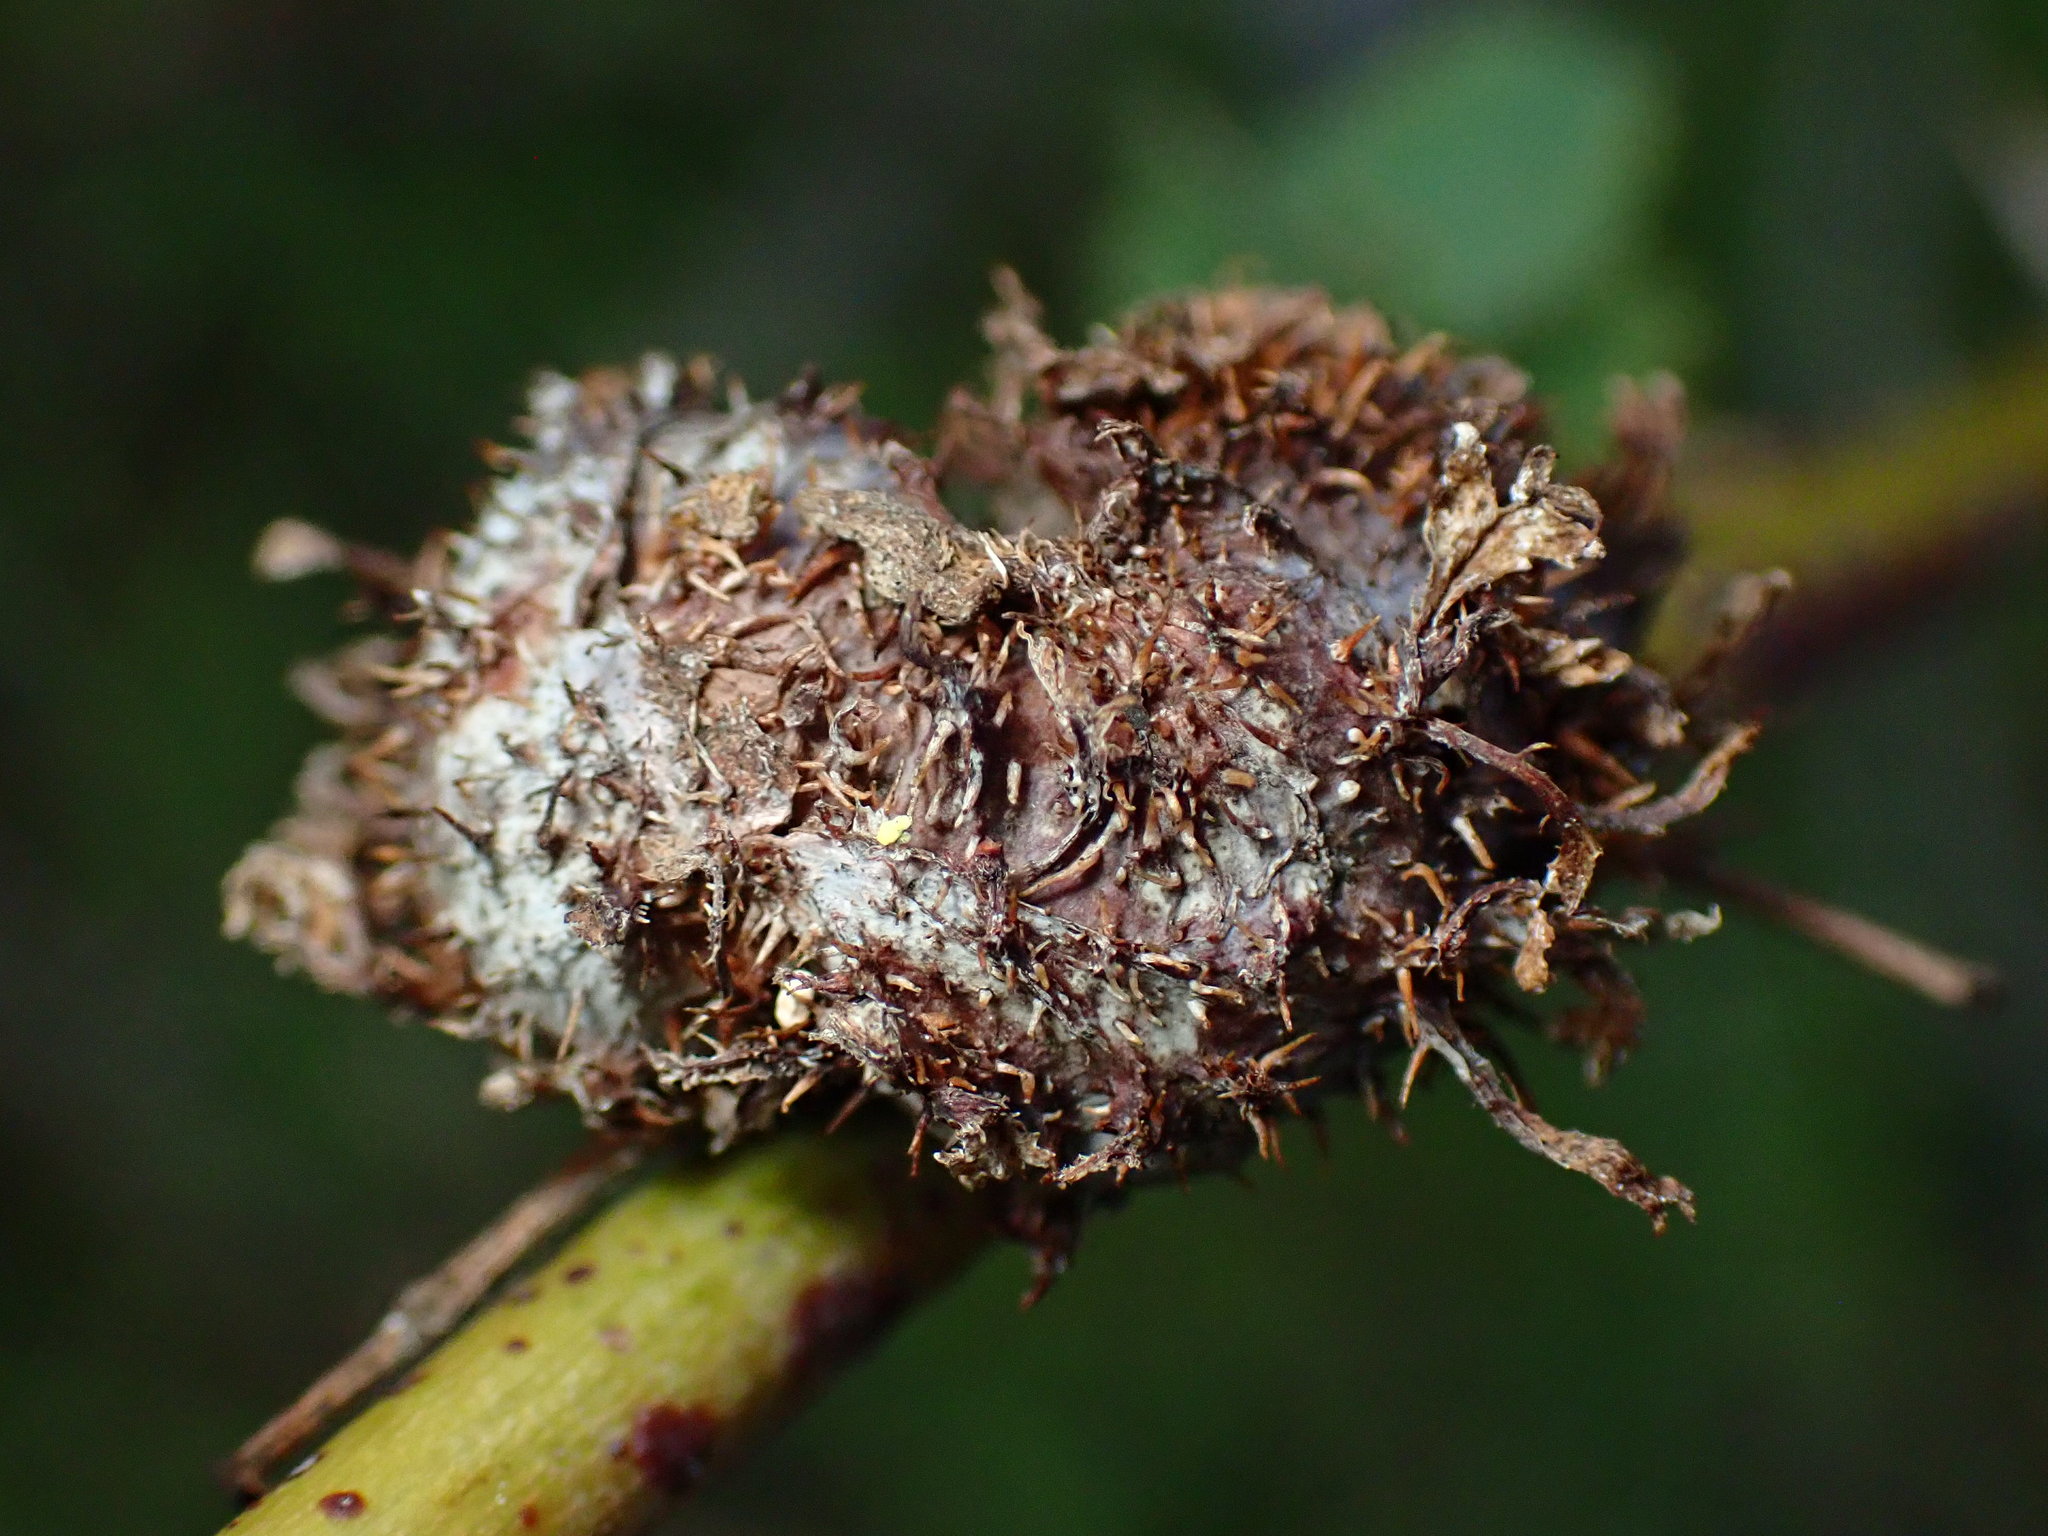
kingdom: Animalia
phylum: Arthropoda
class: Insecta
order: Hymenoptera
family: Cynipidae
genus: Diplolepis
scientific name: Diplolepis californica
